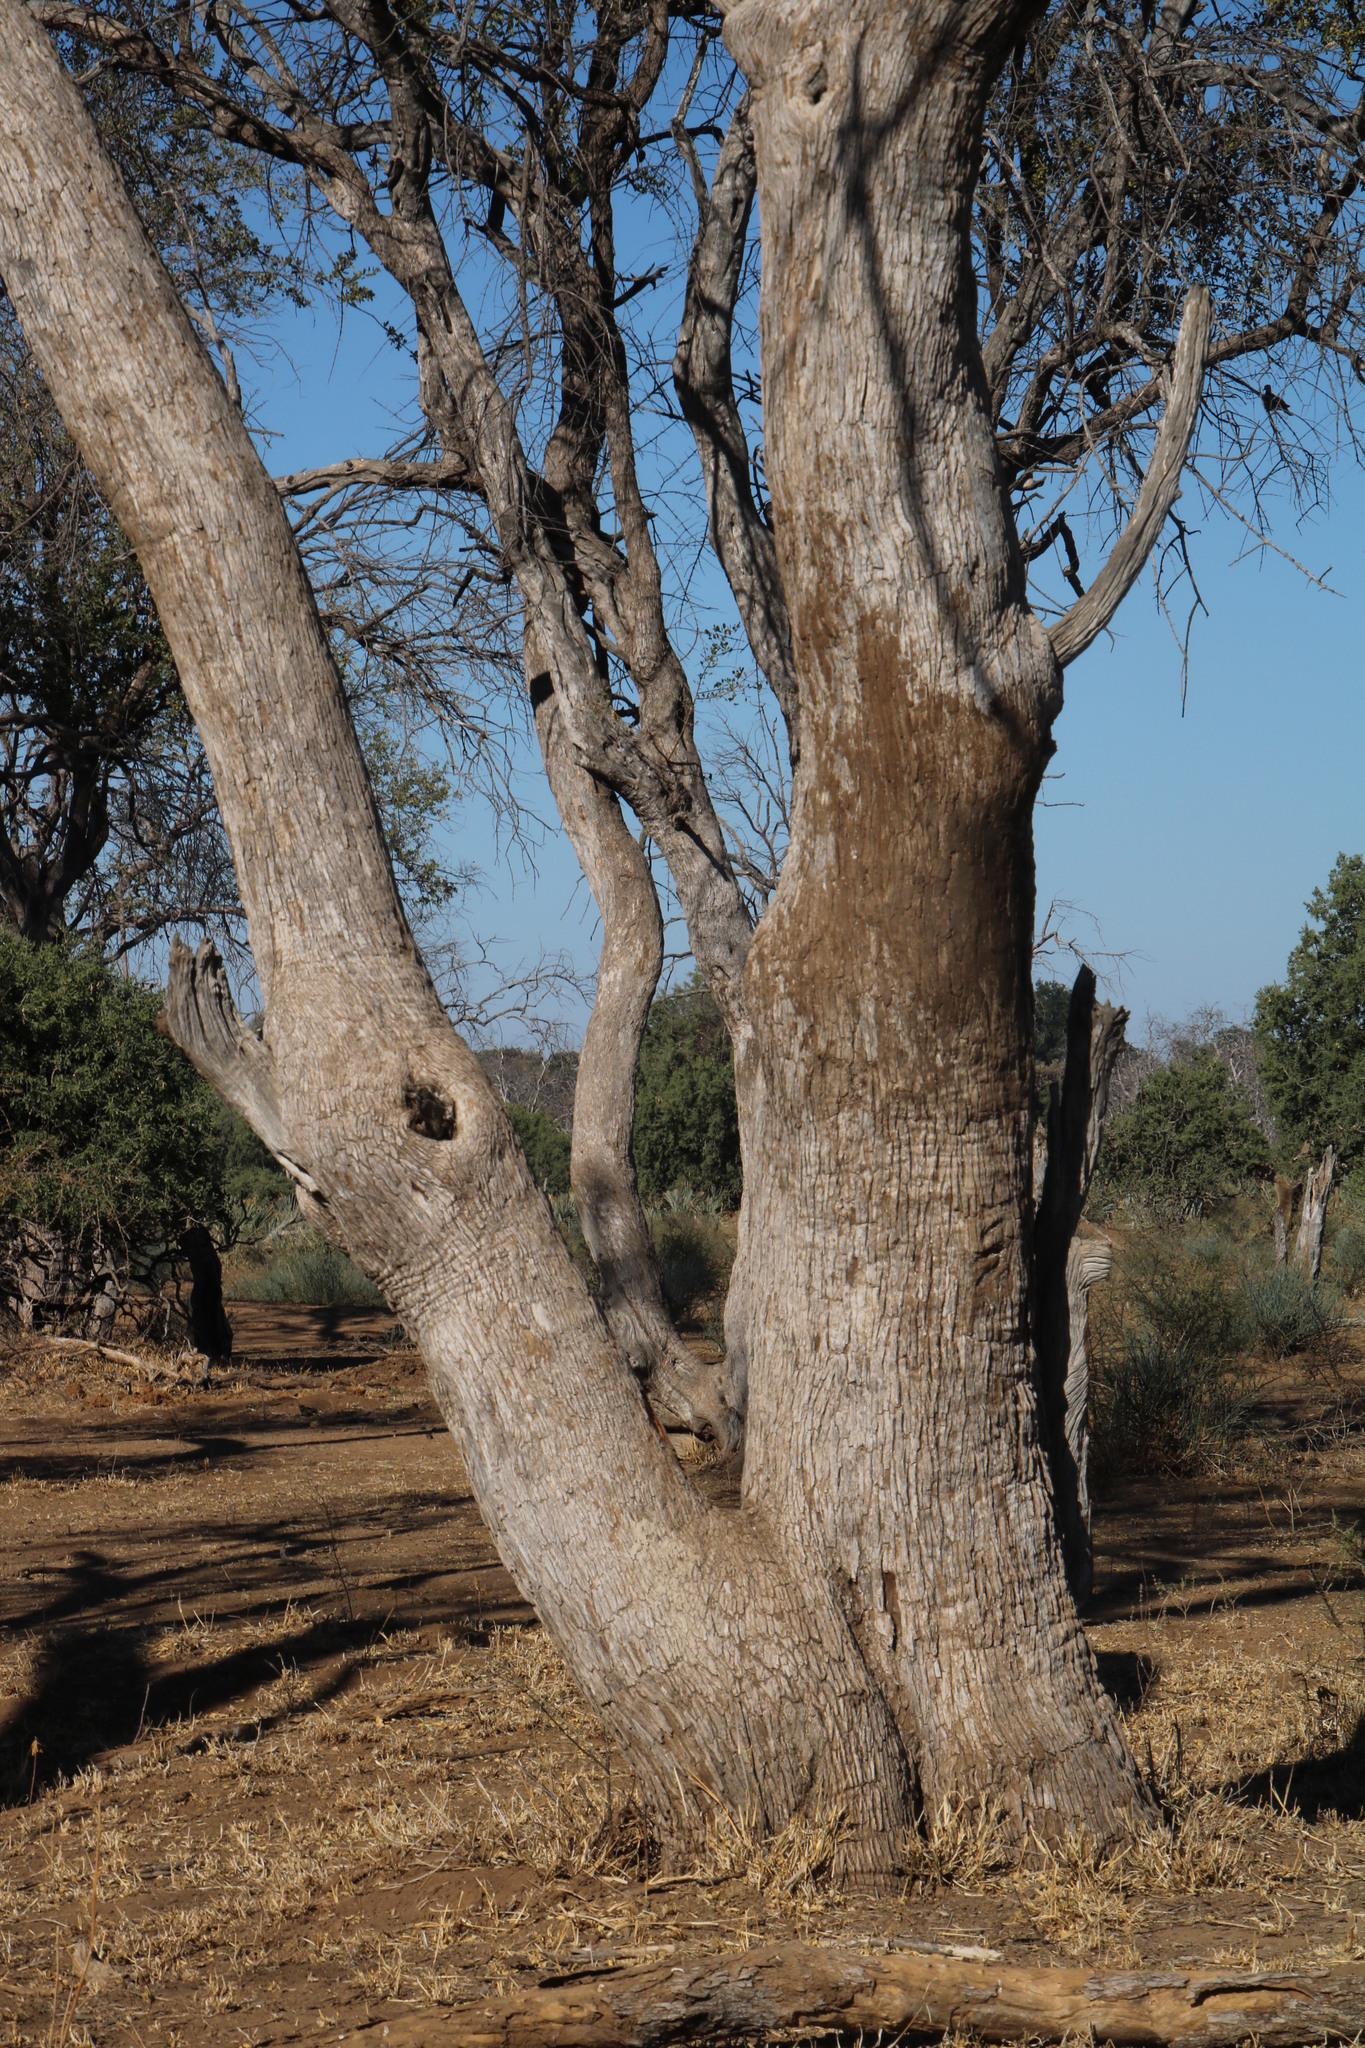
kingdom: Plantae
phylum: Tracheophyta
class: Magnoliopsida
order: Myrtales
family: Combretaceae
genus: Combretum
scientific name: Combretum imberbe
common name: Leadwood
